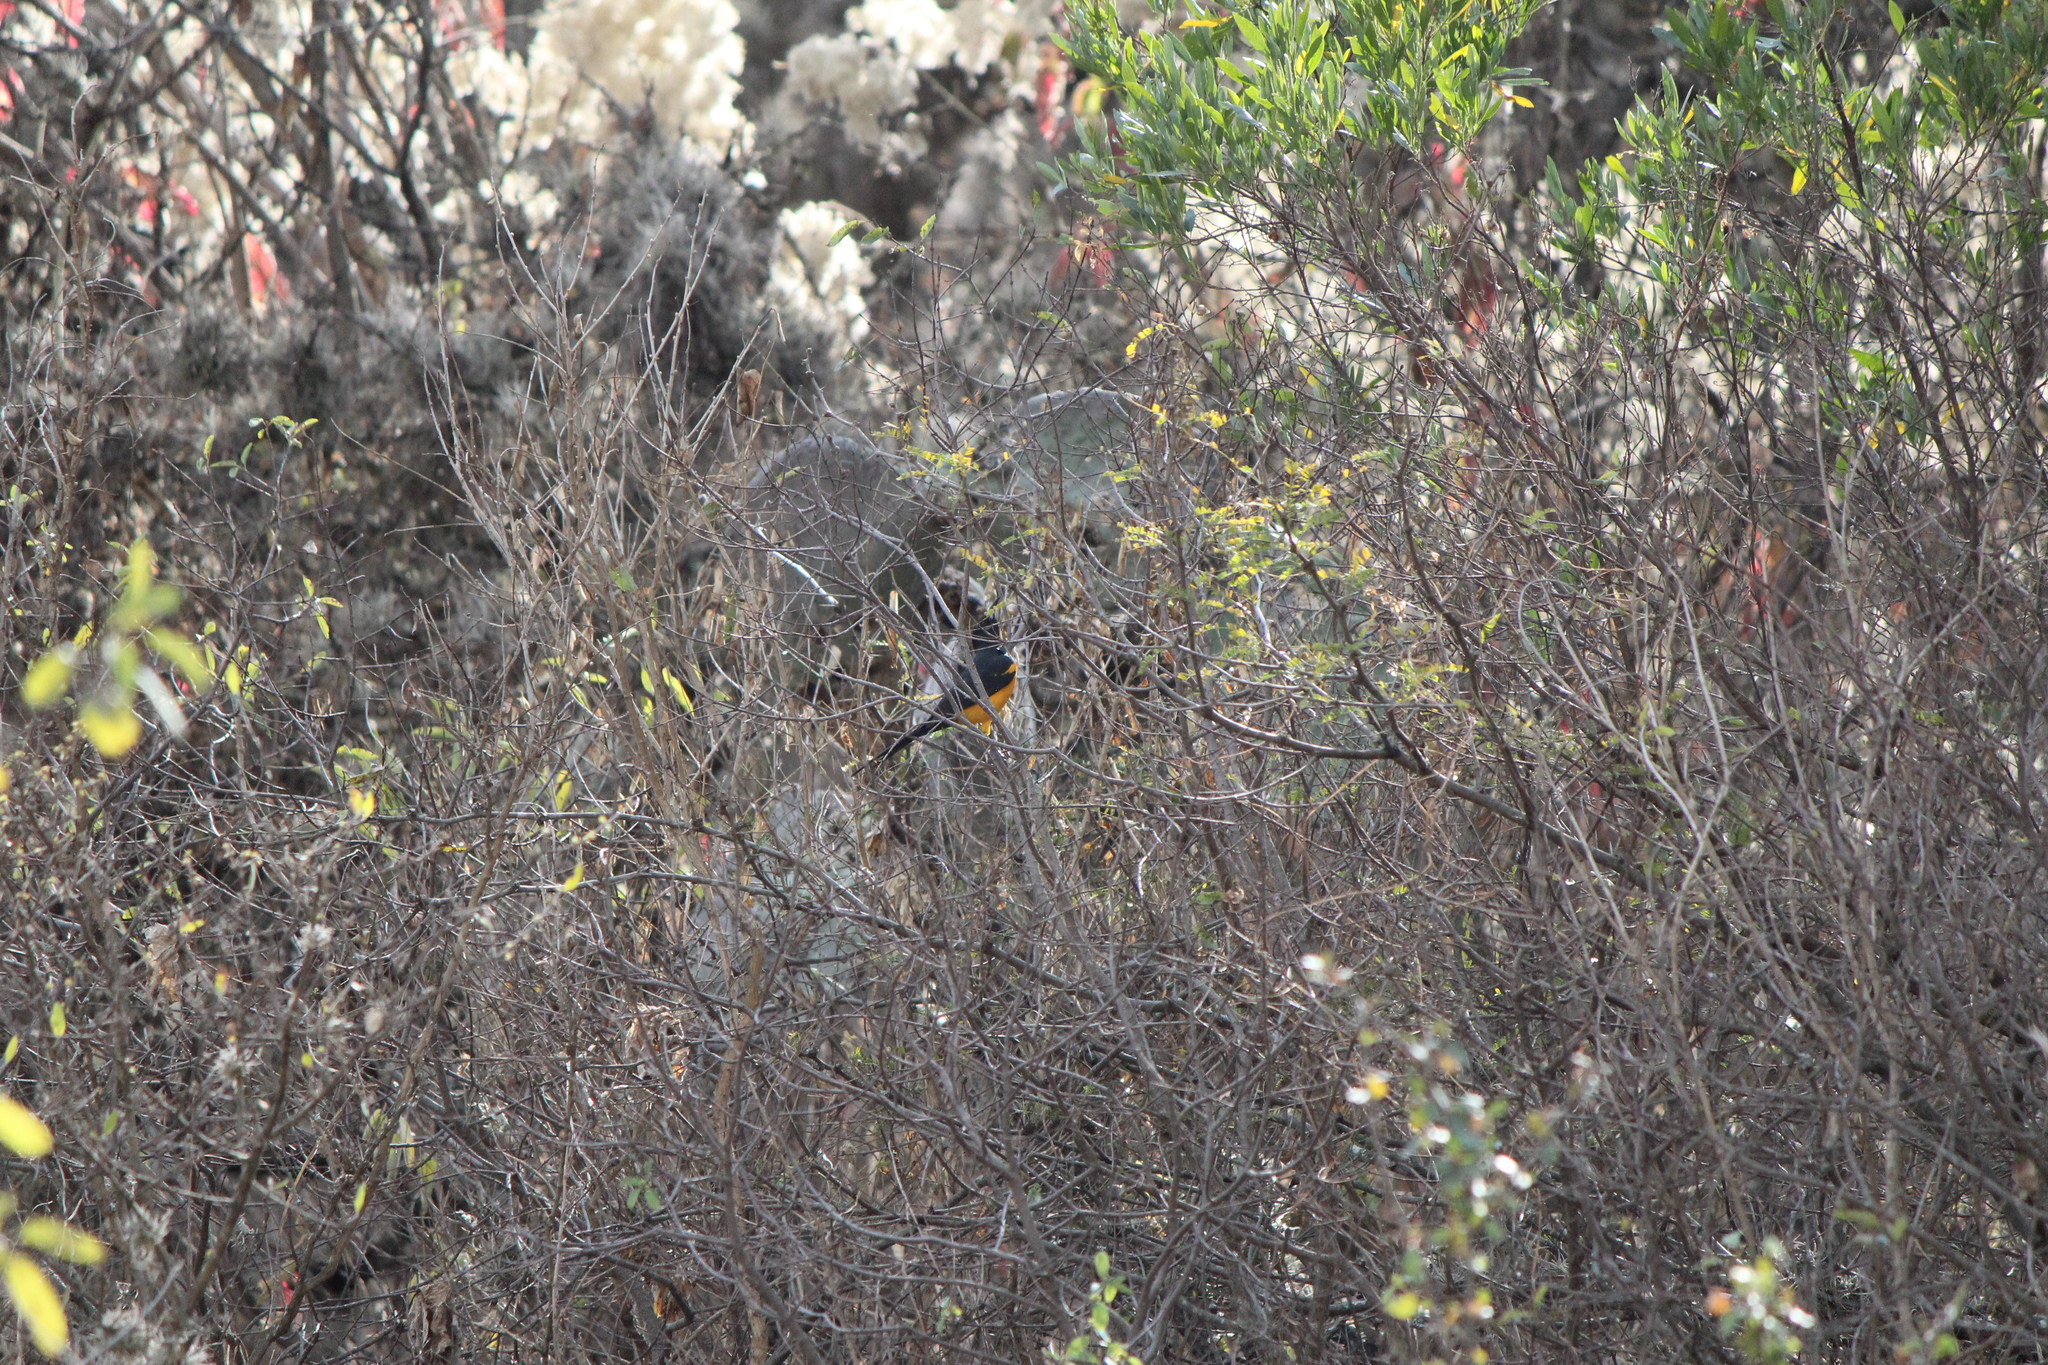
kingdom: Animalia
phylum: Chordata
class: Aves
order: Passeriformes
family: Icteridae
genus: Icterus
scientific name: Icterus wagleri
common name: Black-vented oriole
